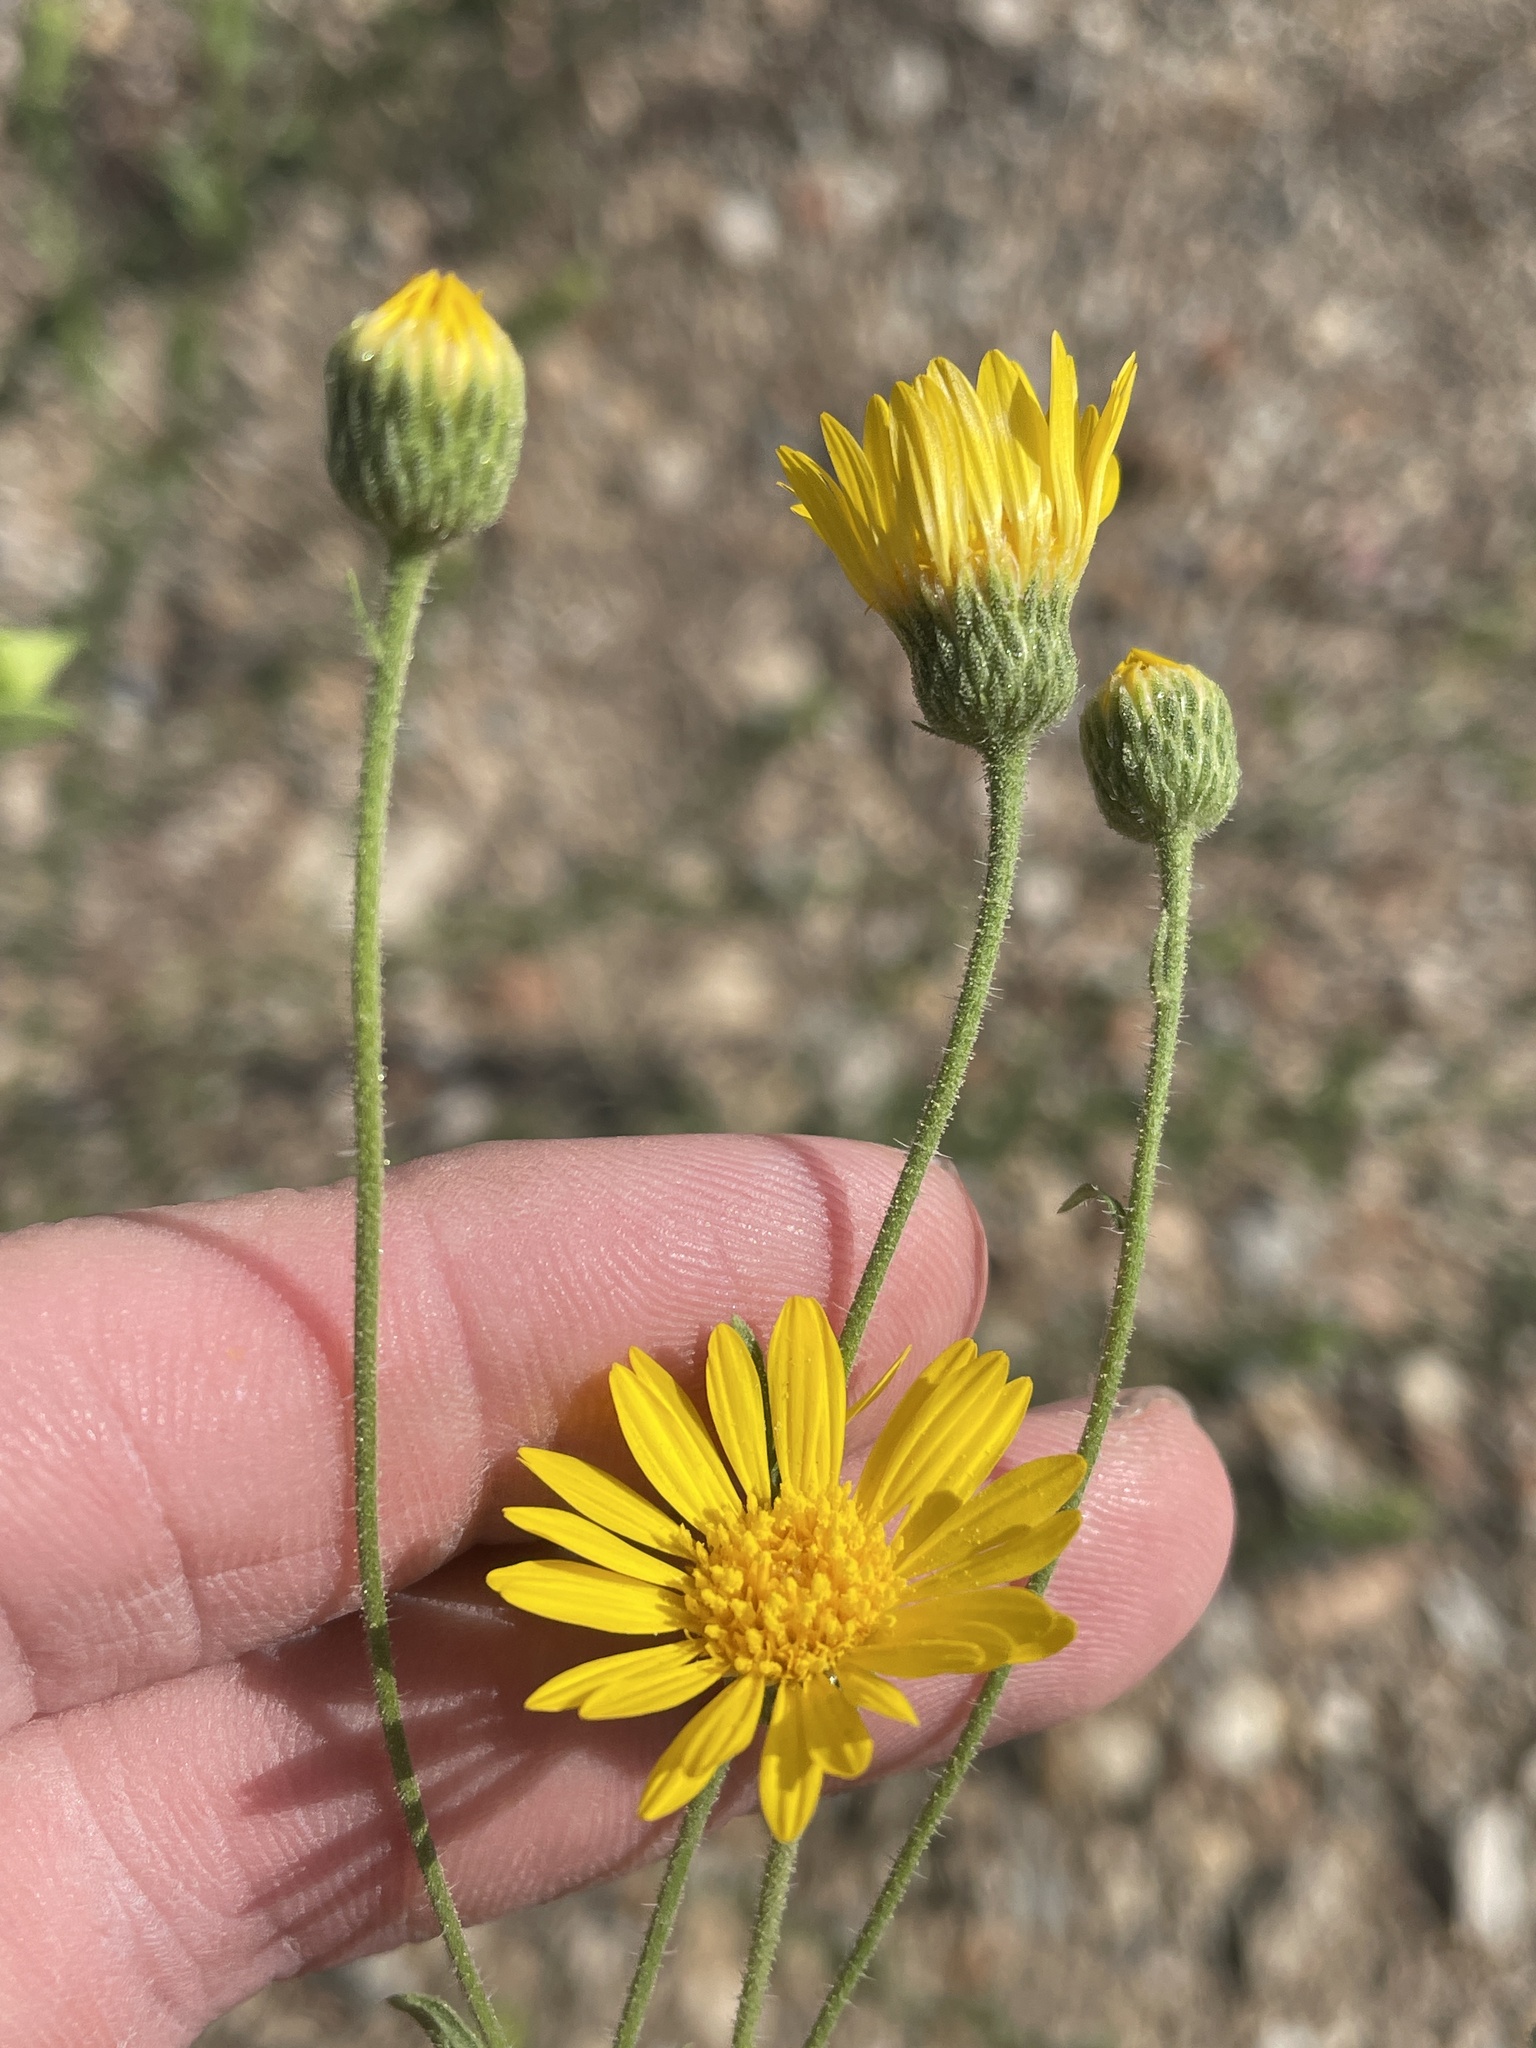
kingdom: Plantae
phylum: Tracheophyta
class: Magnoliopsida
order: Asterales
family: Asteraceae
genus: Heterotheca
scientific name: Heterotheca subaxillaris
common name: Camphorweed
